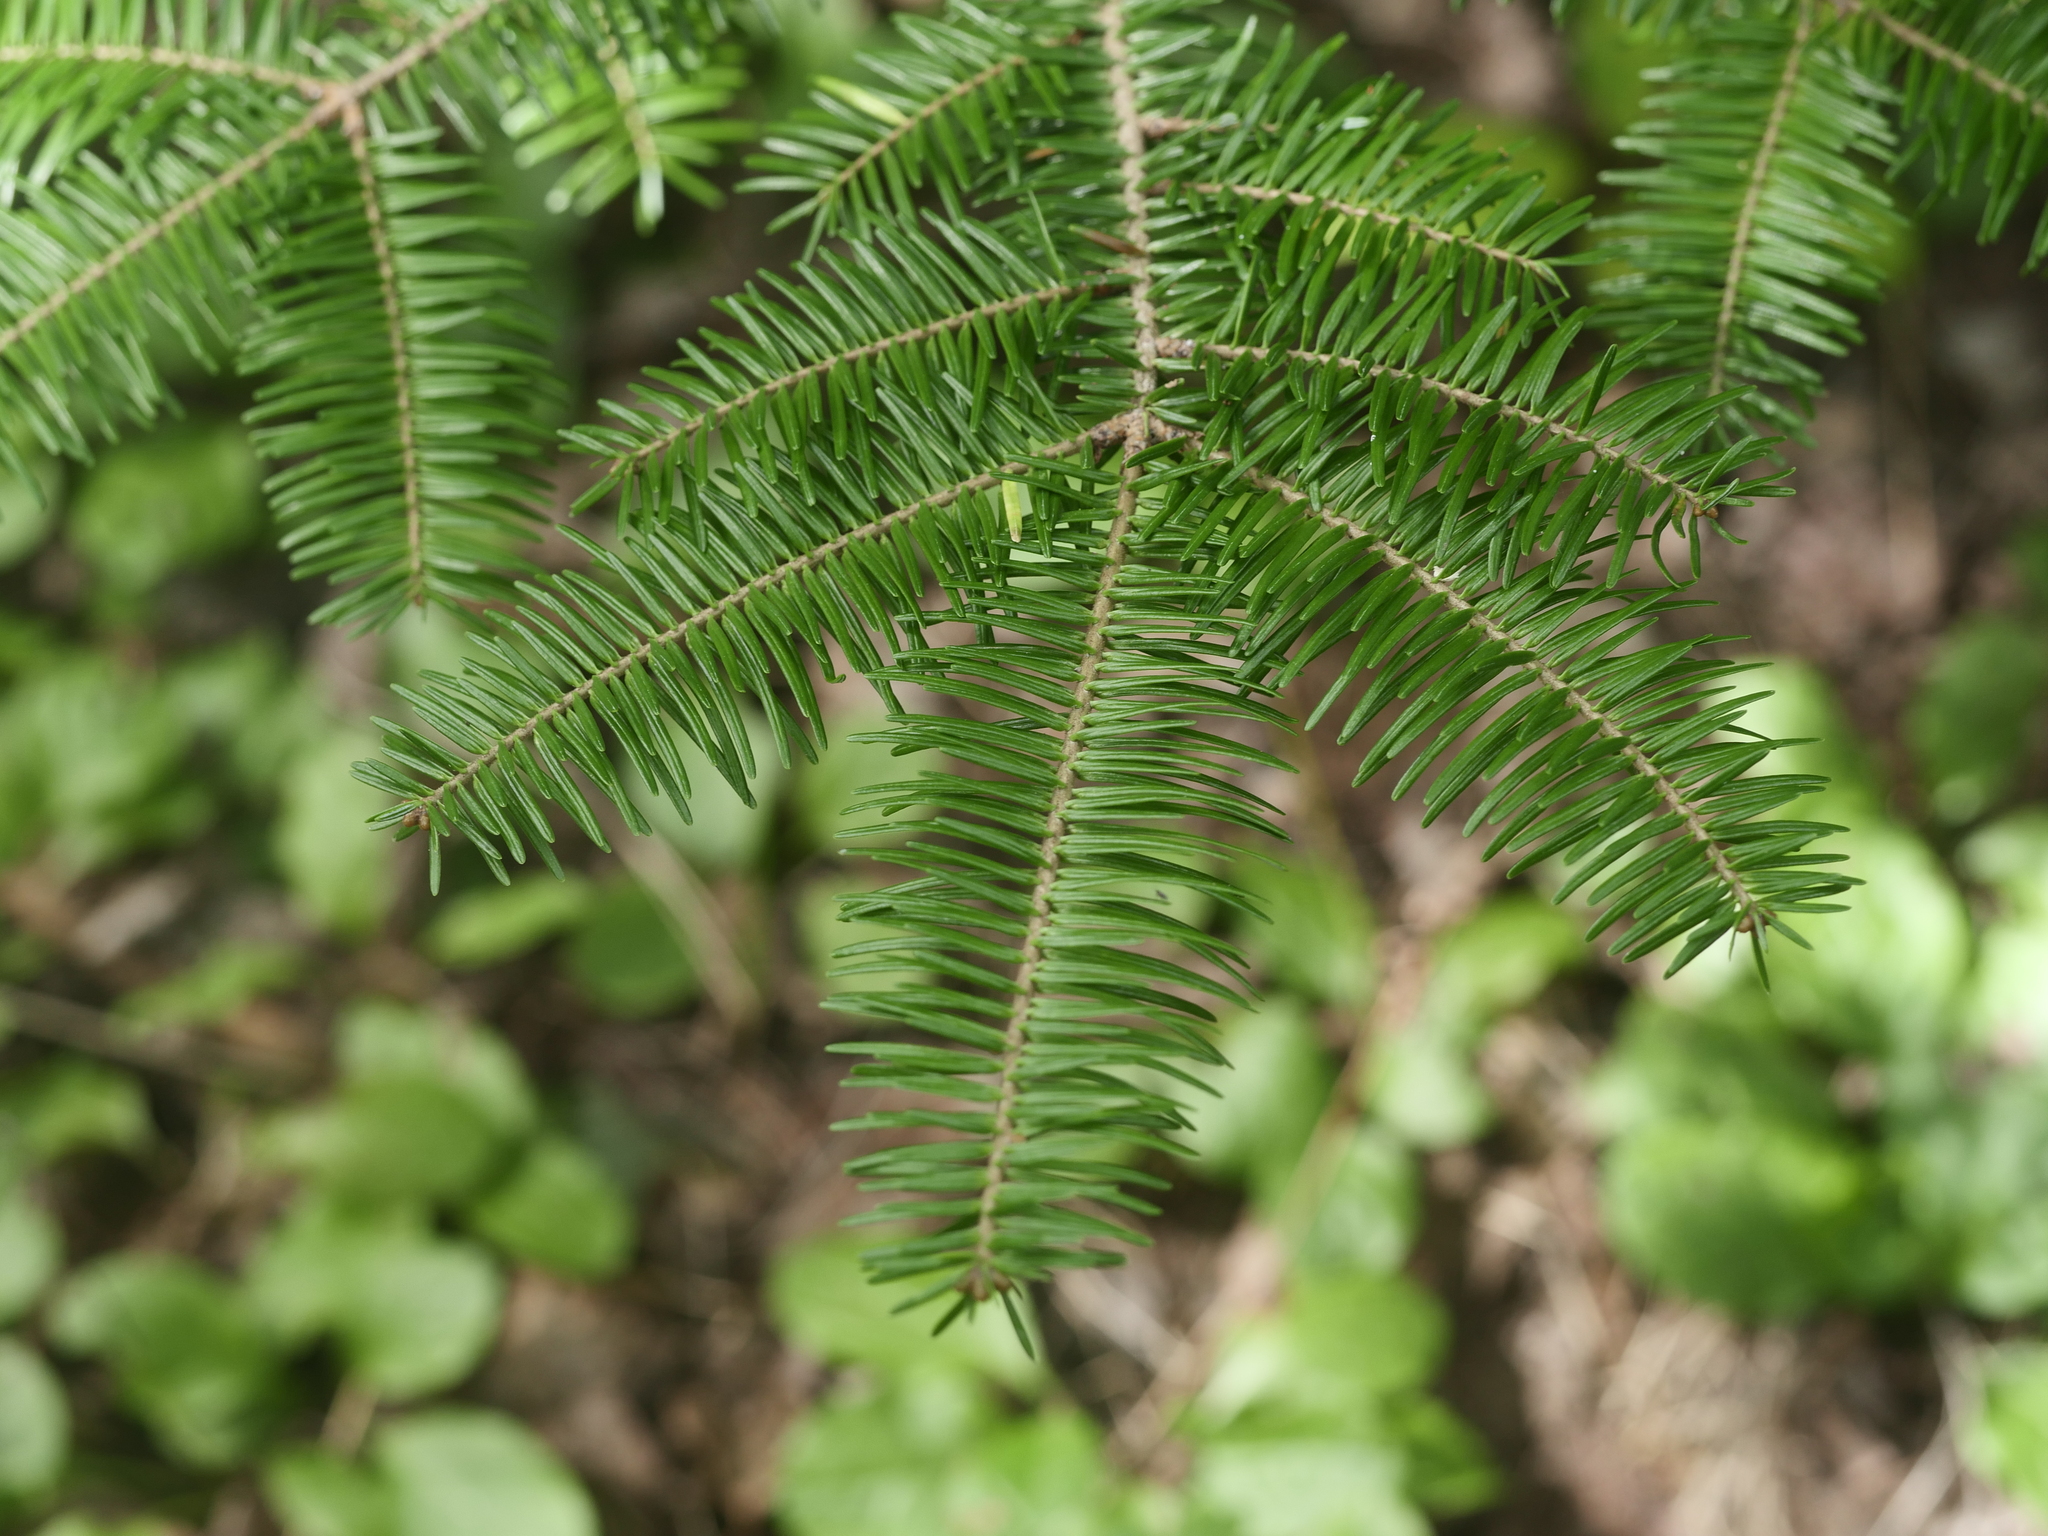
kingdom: Plantae
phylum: Tracheophyta
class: Pinopsida
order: Pinales
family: Pinaceae
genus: Abies
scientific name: Abies balsamea
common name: Balsam fir
